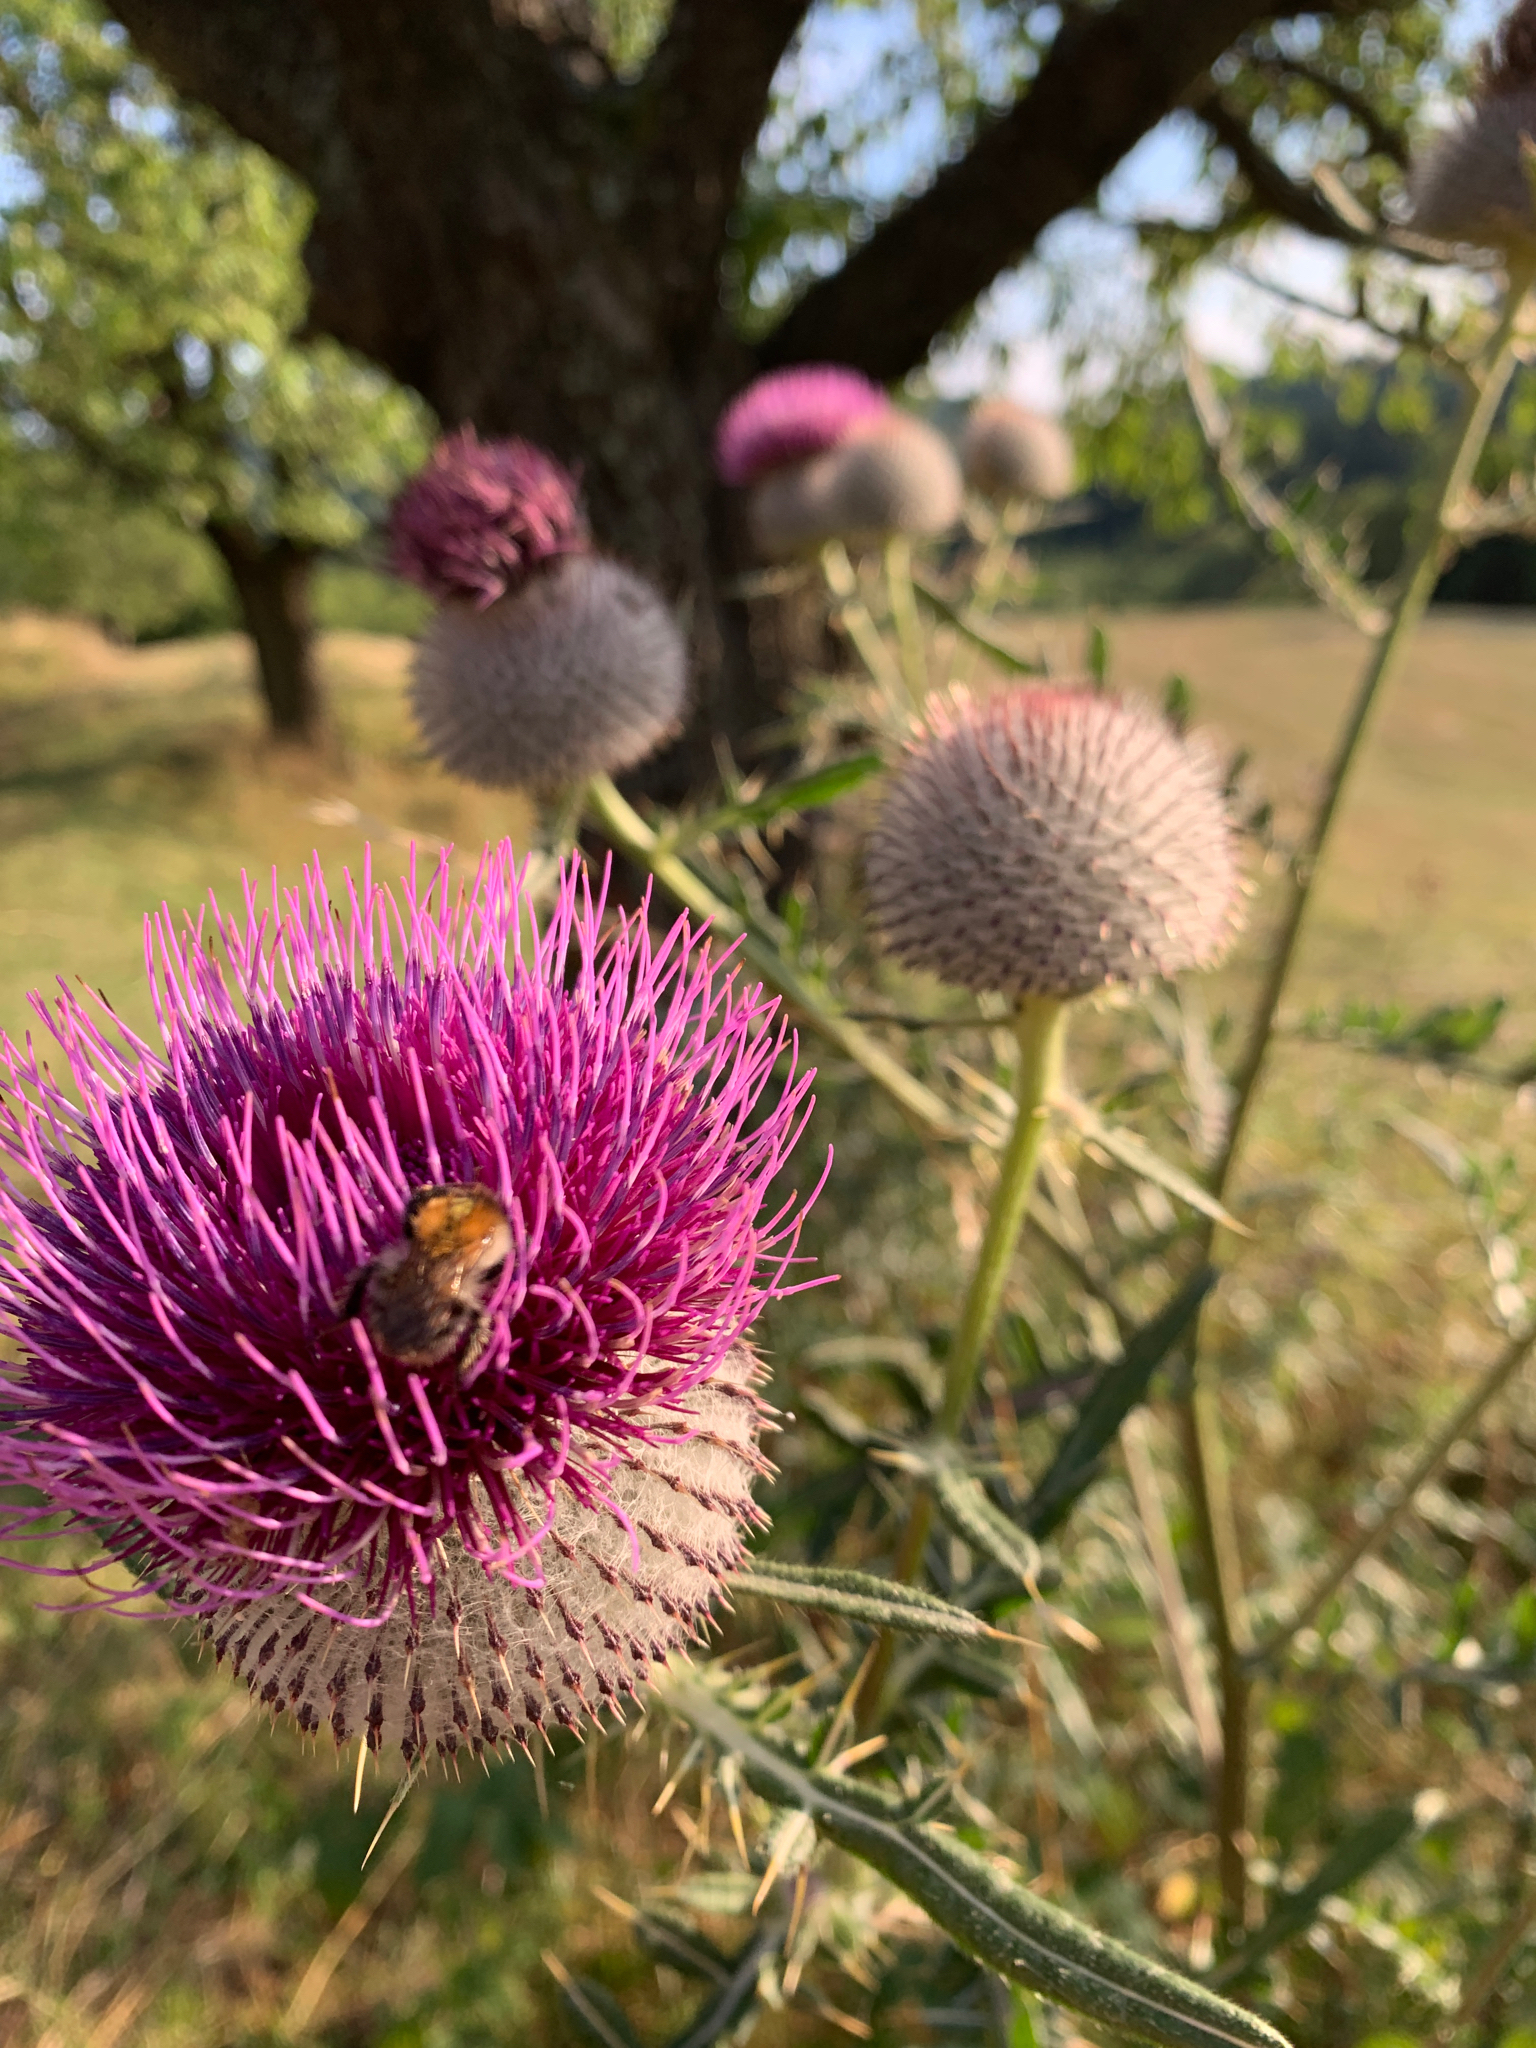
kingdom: Plantae
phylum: Tracheophyta
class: Magnoliopsida
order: Asterales
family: Asteraceae
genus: Lophiolepis
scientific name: Lophiolepis eriophora
